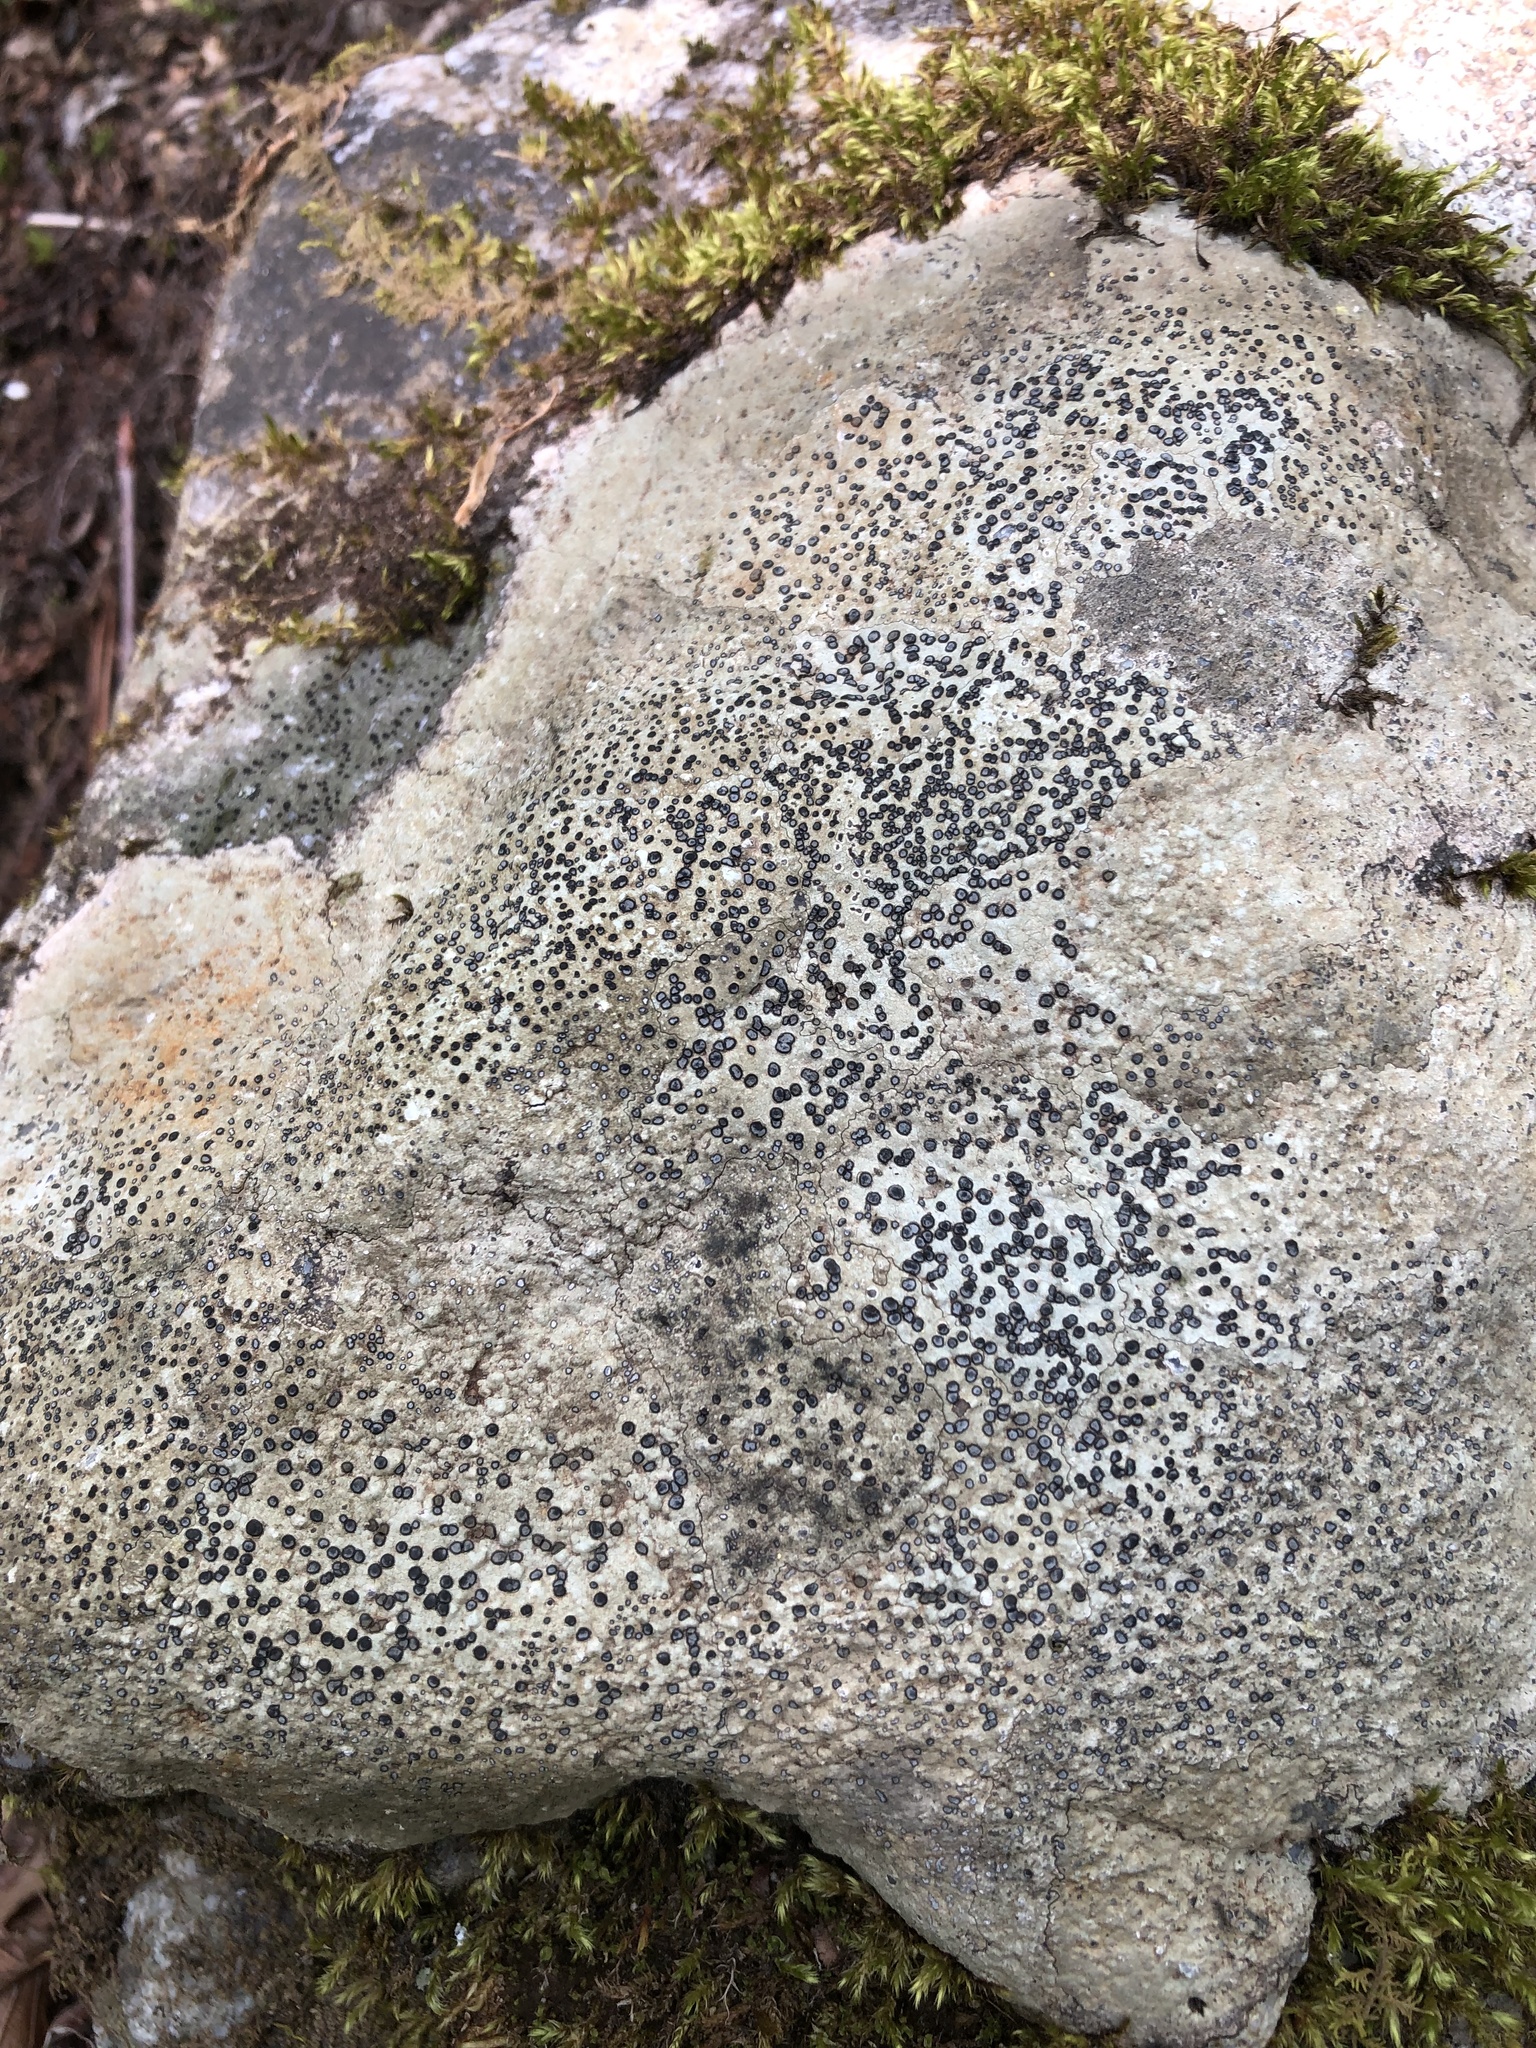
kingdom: Fungi
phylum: Ascomycota
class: Lecanoromycetes
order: Lecideales
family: Lecideaceae
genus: Porpidia
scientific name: Porpidia albocaerulescens
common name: Smokey-eyed boulder lichen
